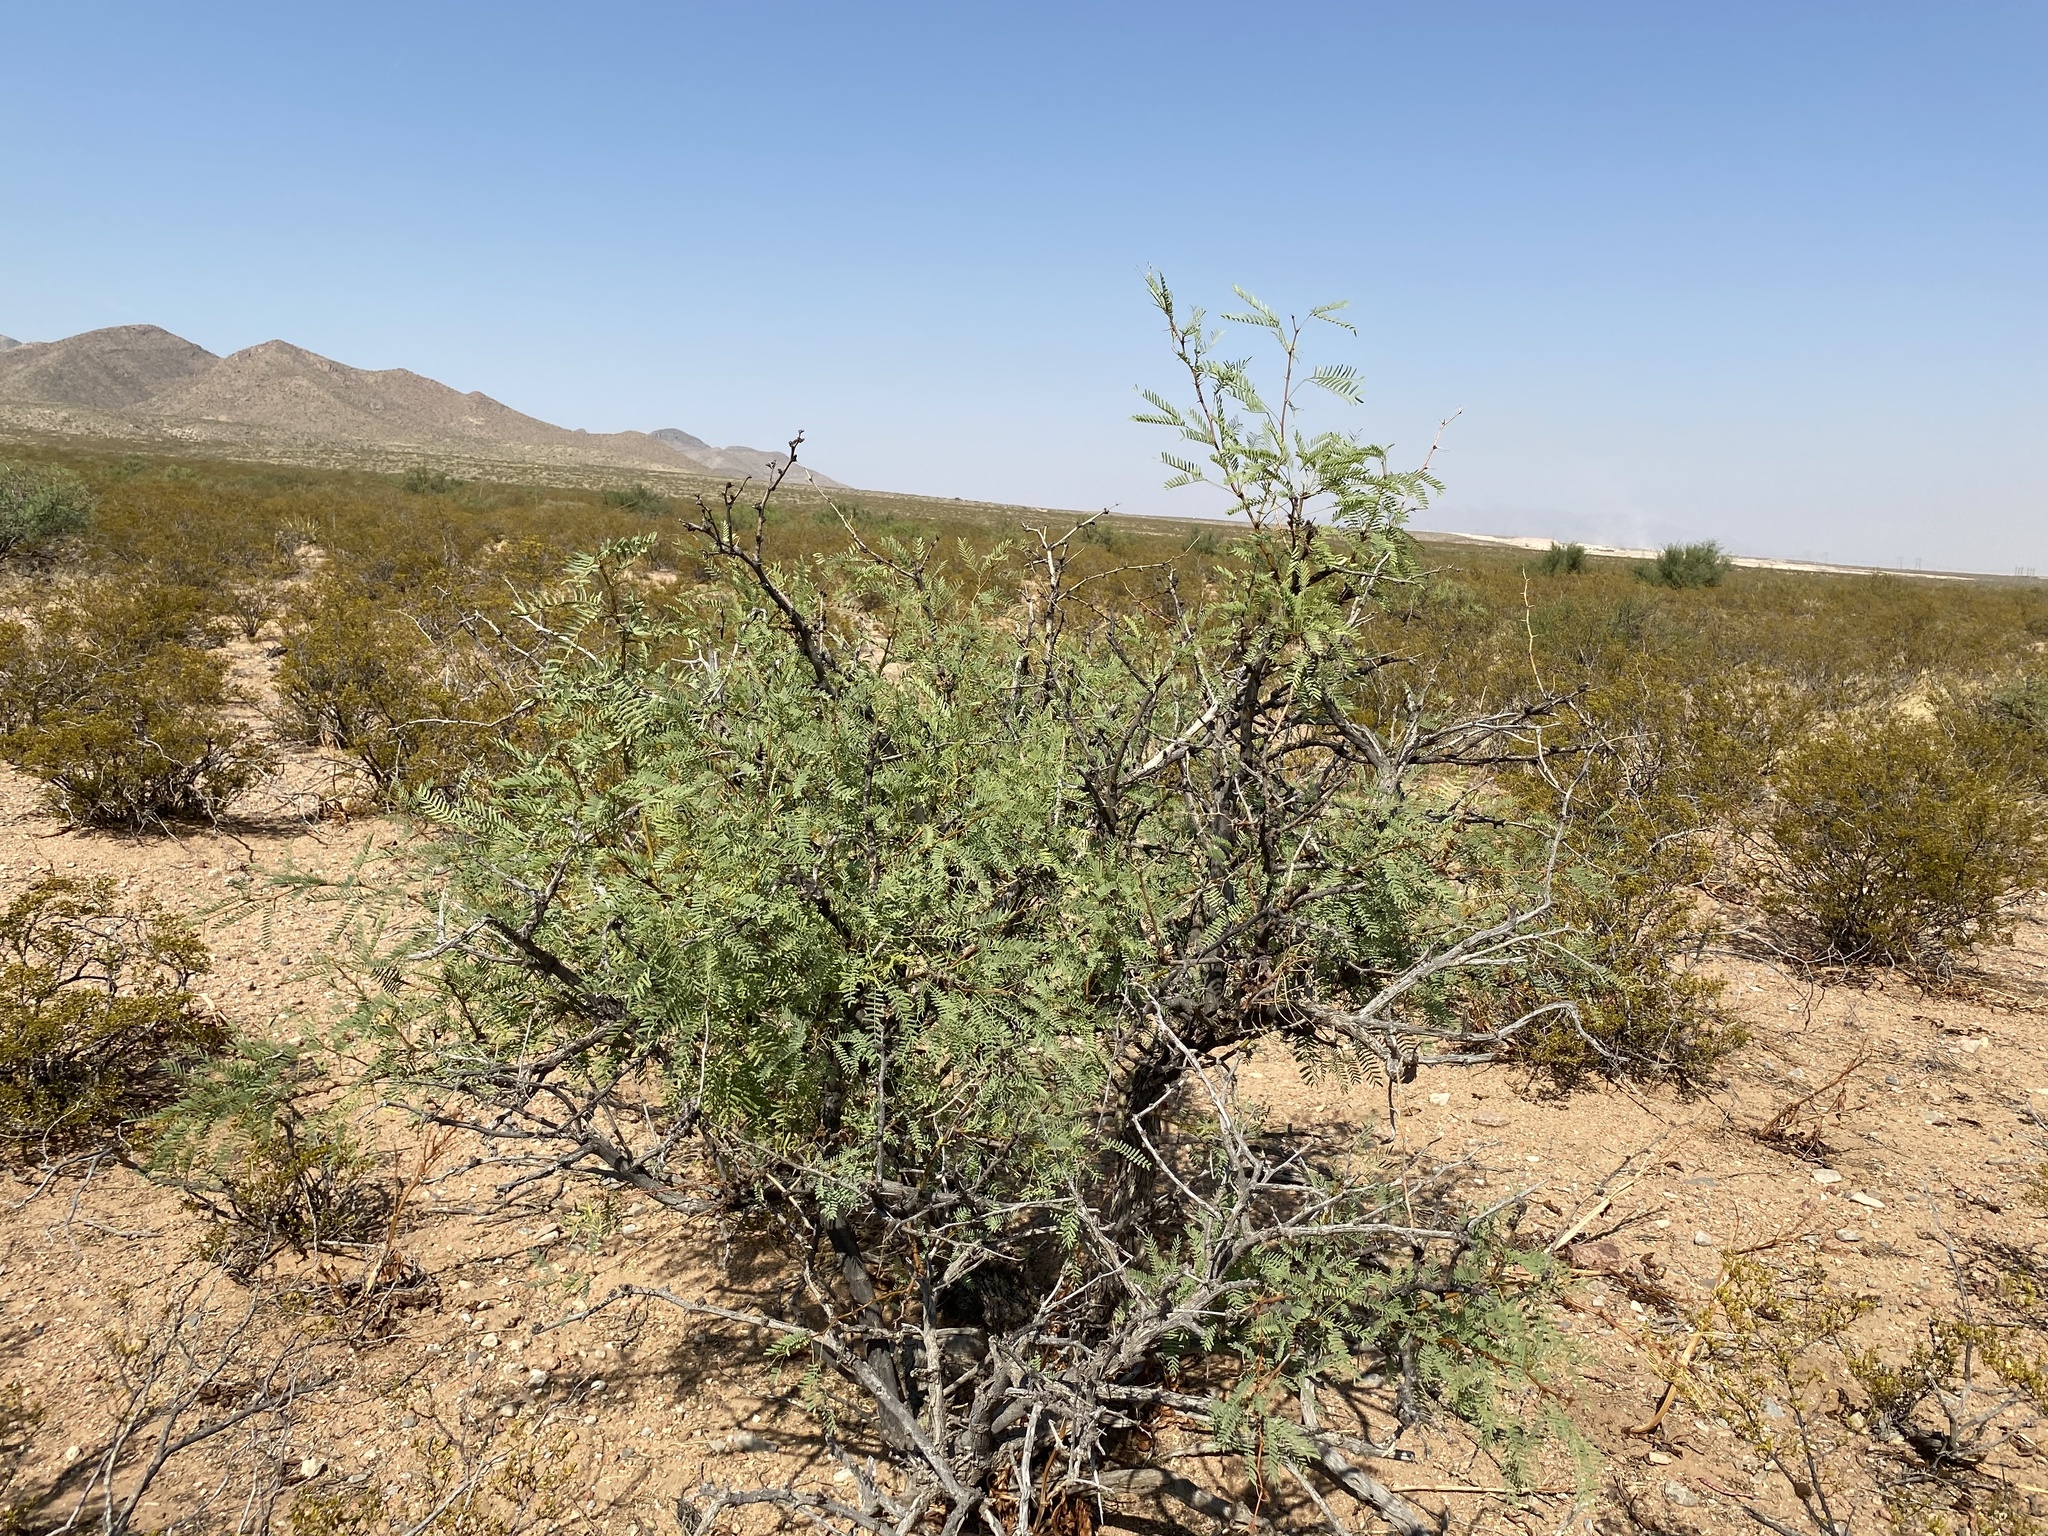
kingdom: Plantae
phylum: Tracheophyta
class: Magnoliopsida
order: Fabales
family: Fabaceae
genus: Prosopis
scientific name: Prosopis glandulosa
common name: Honey mesquite
